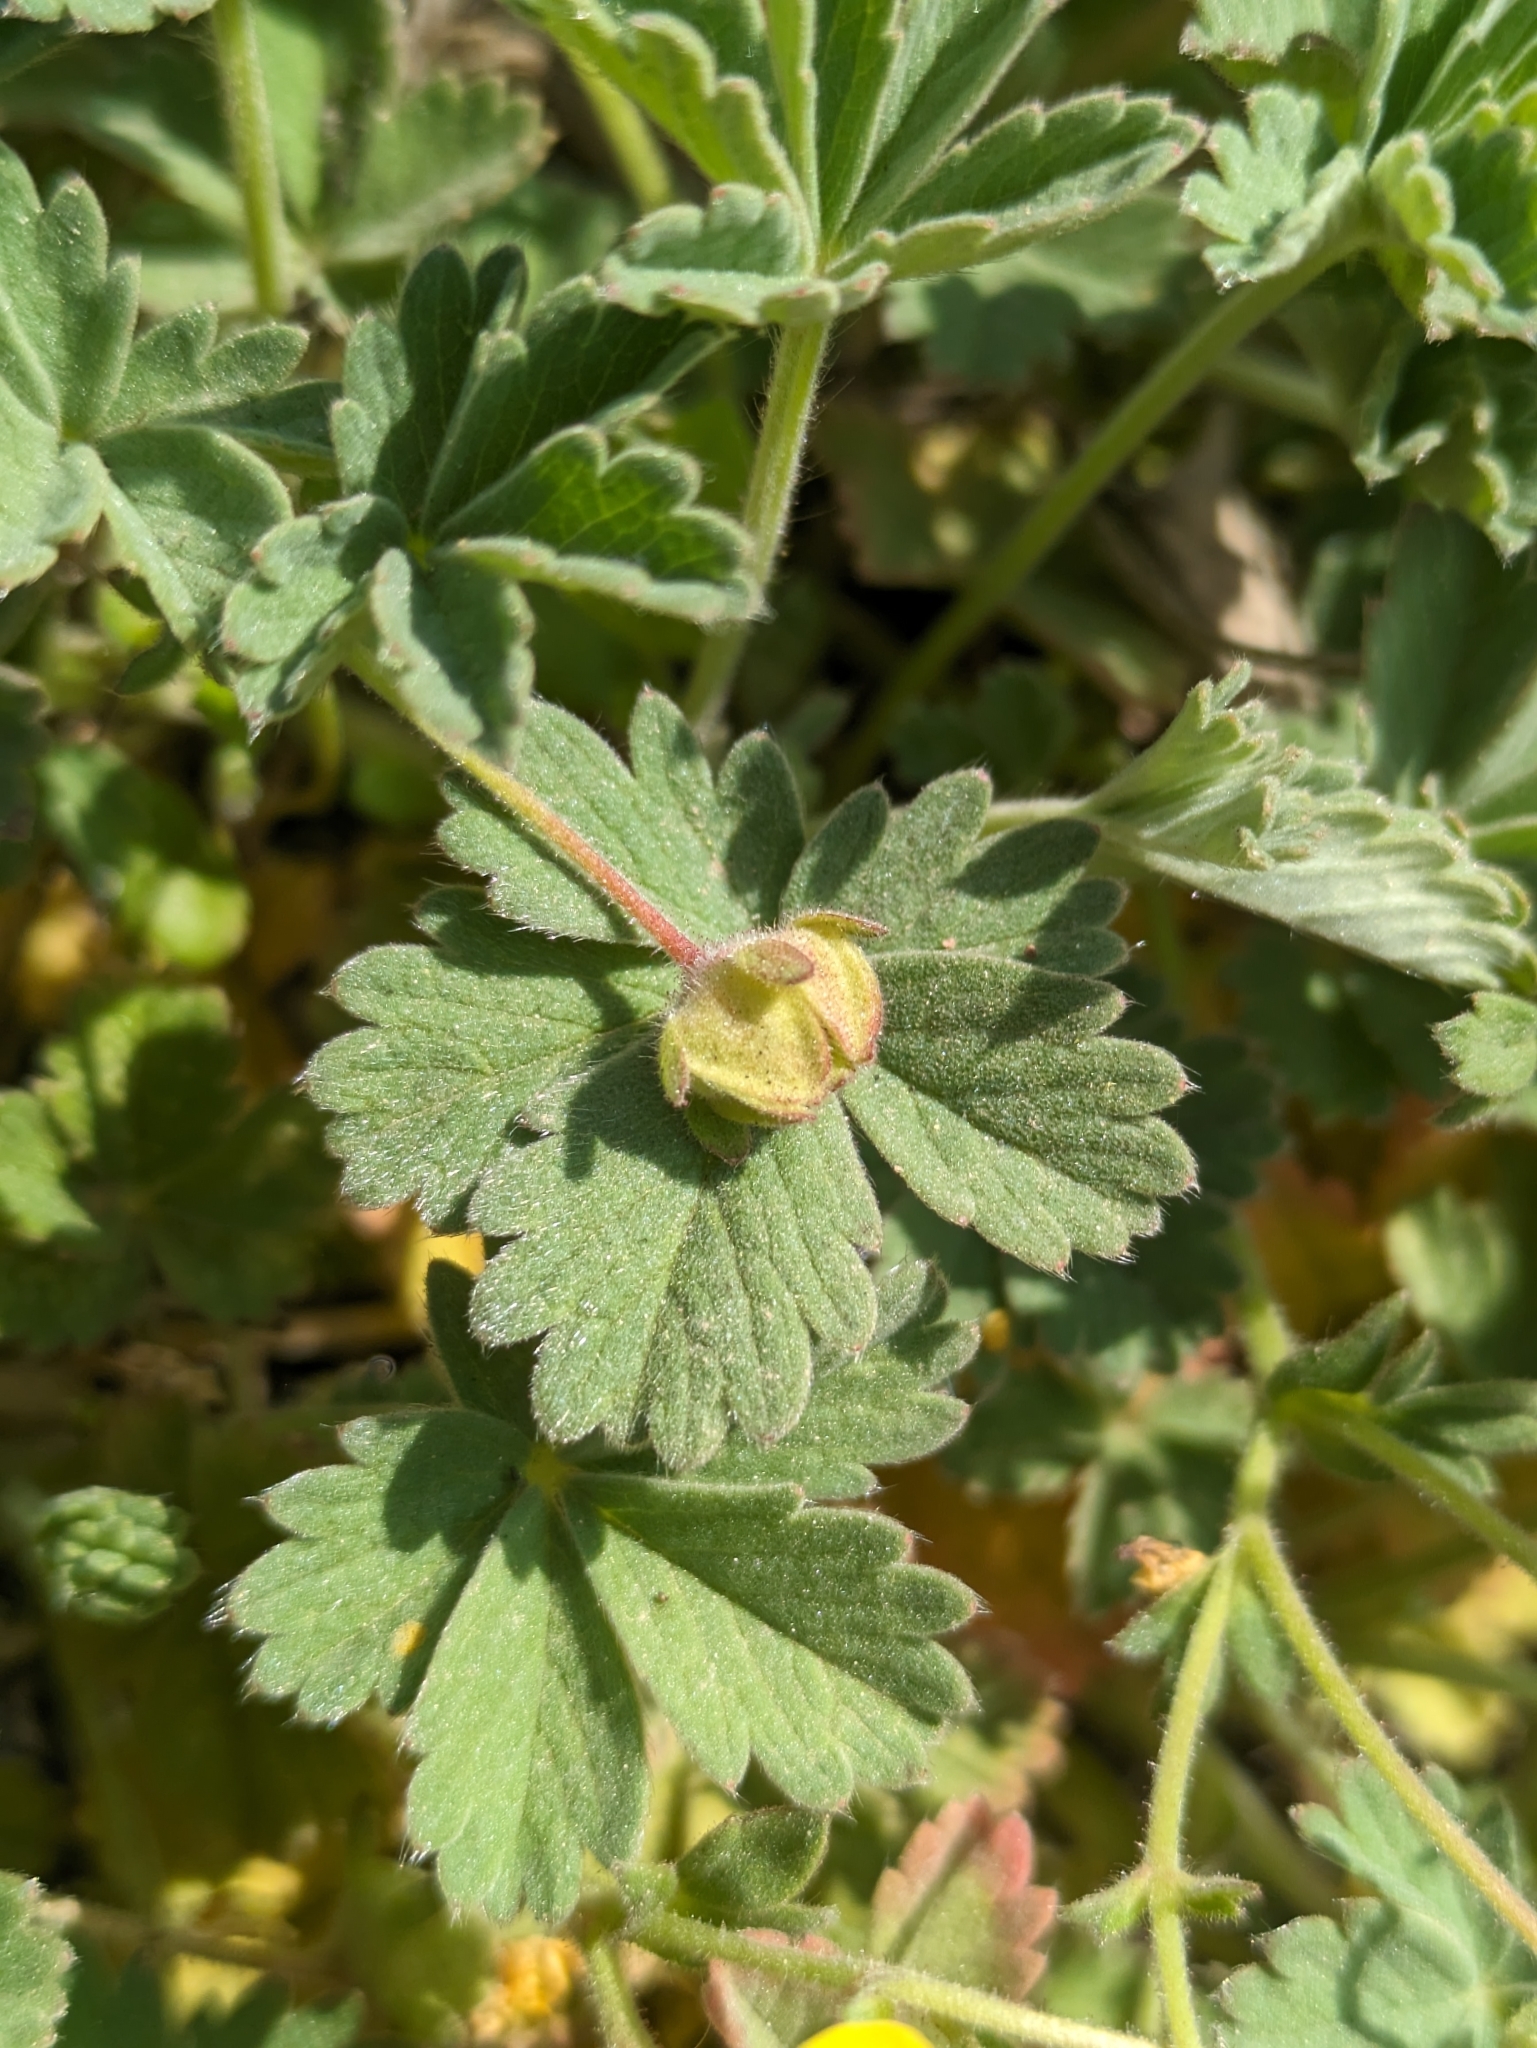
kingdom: Plantae
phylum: Tracheophyta
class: Magnoliopsida
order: Rosales
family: Rosaceae
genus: Potentilla
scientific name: Potentilla incana
